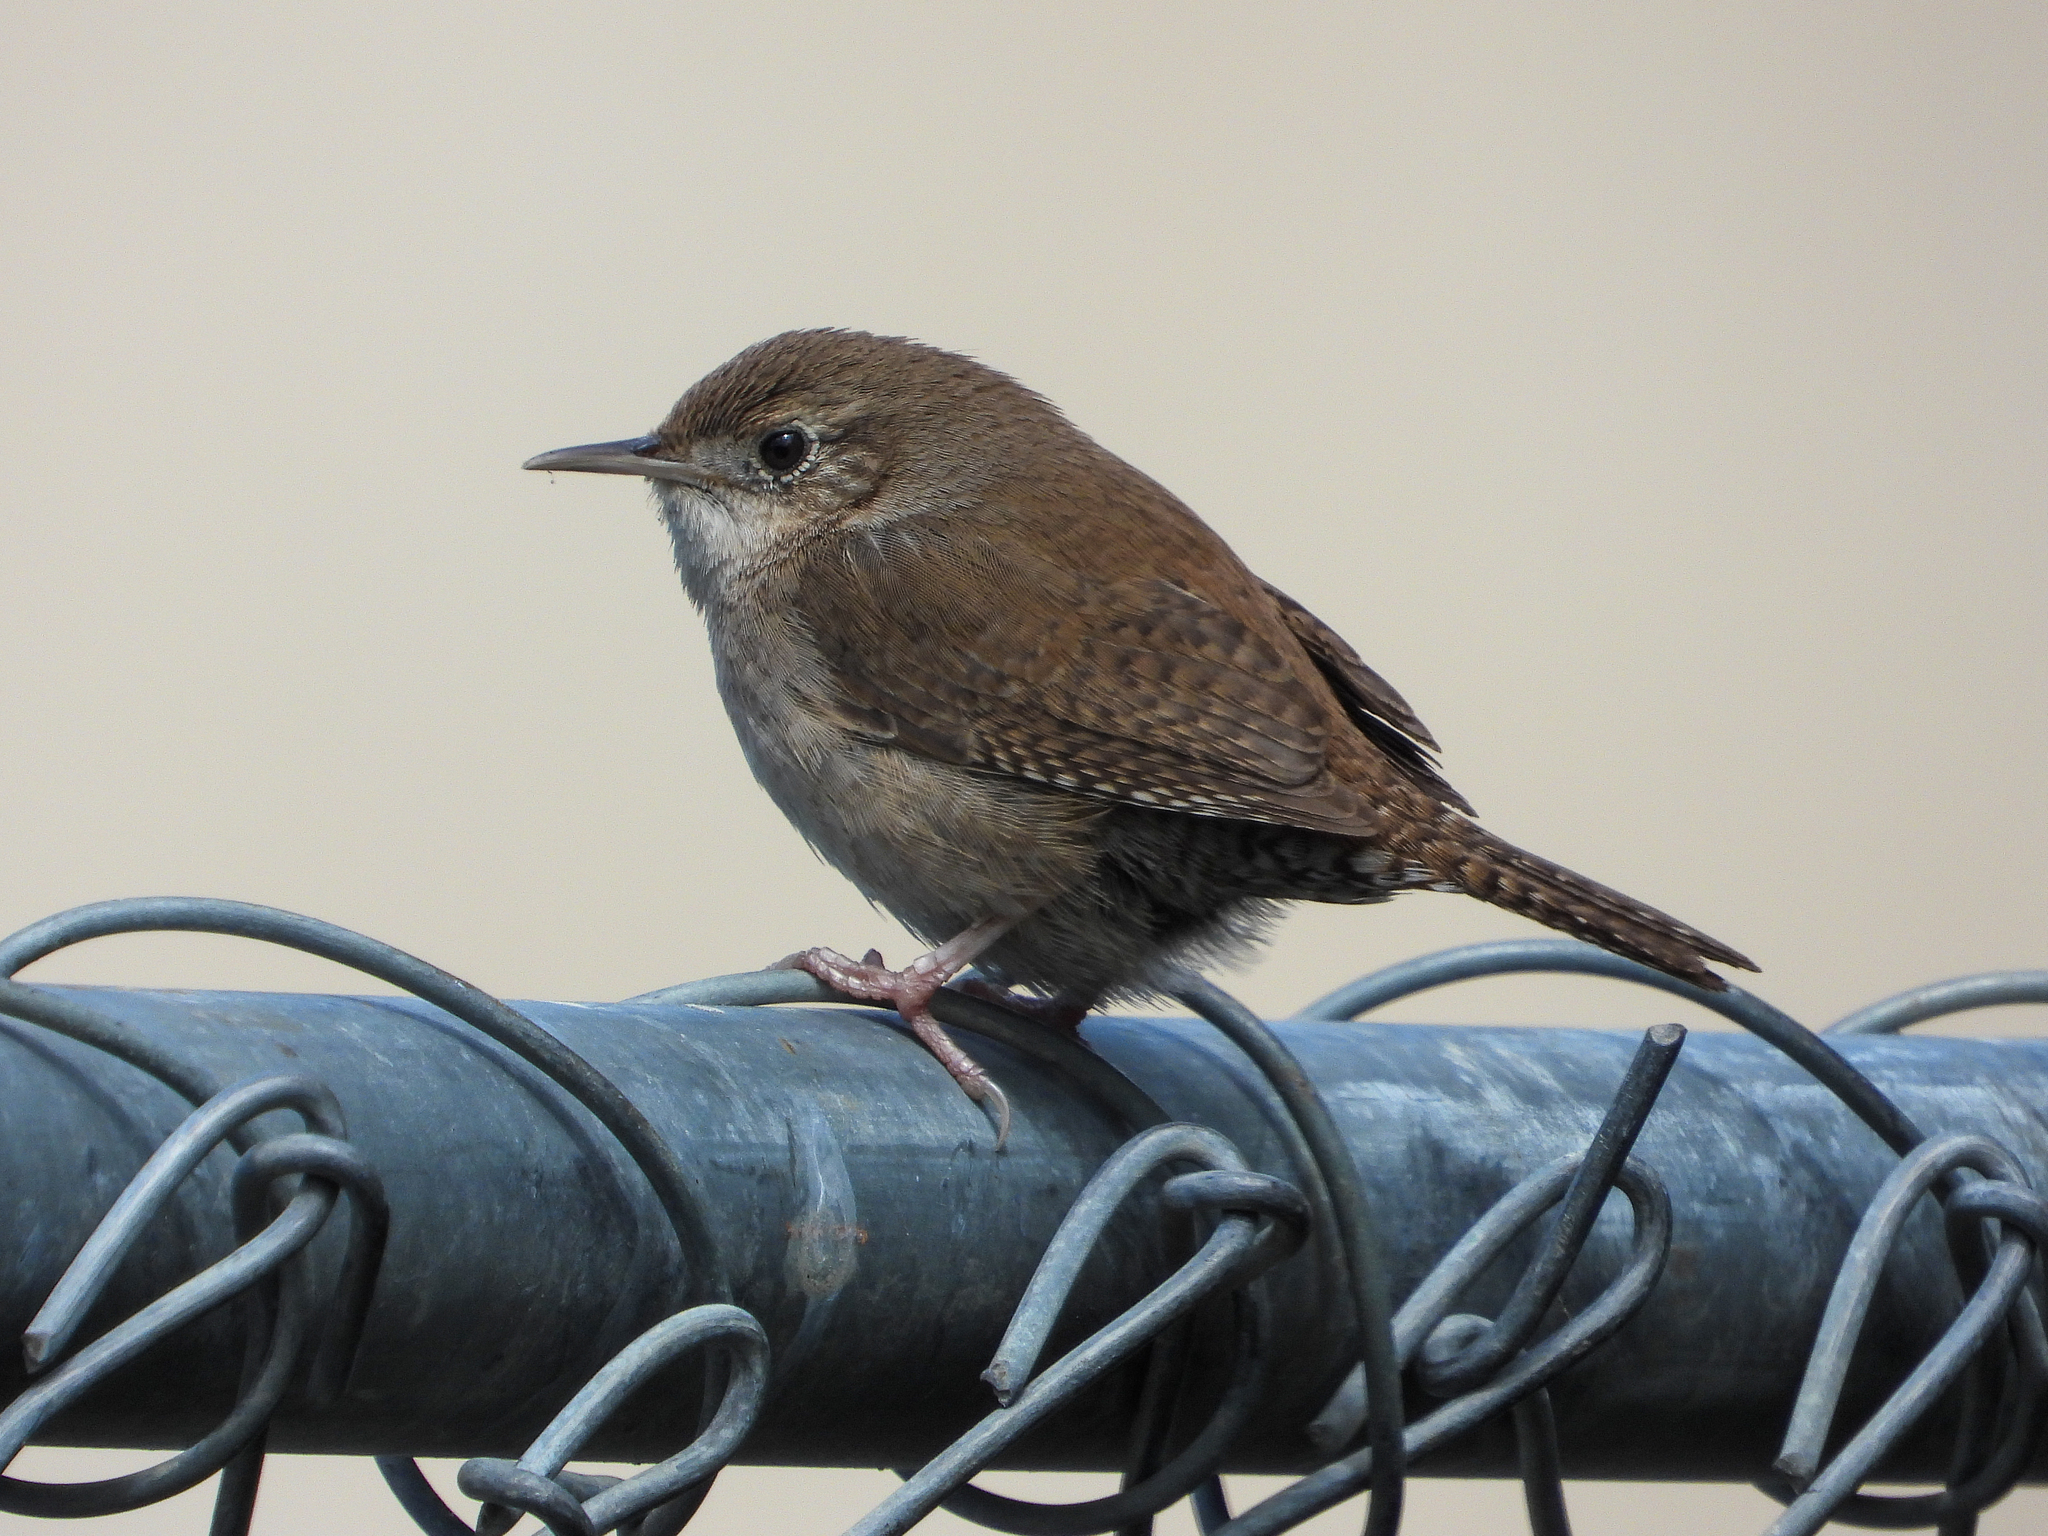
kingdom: Animalia
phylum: Chordata
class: Aves
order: Passeriformes
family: Troglodytidae
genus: Troglodytes
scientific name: Troglodytes aedon
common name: House wren
